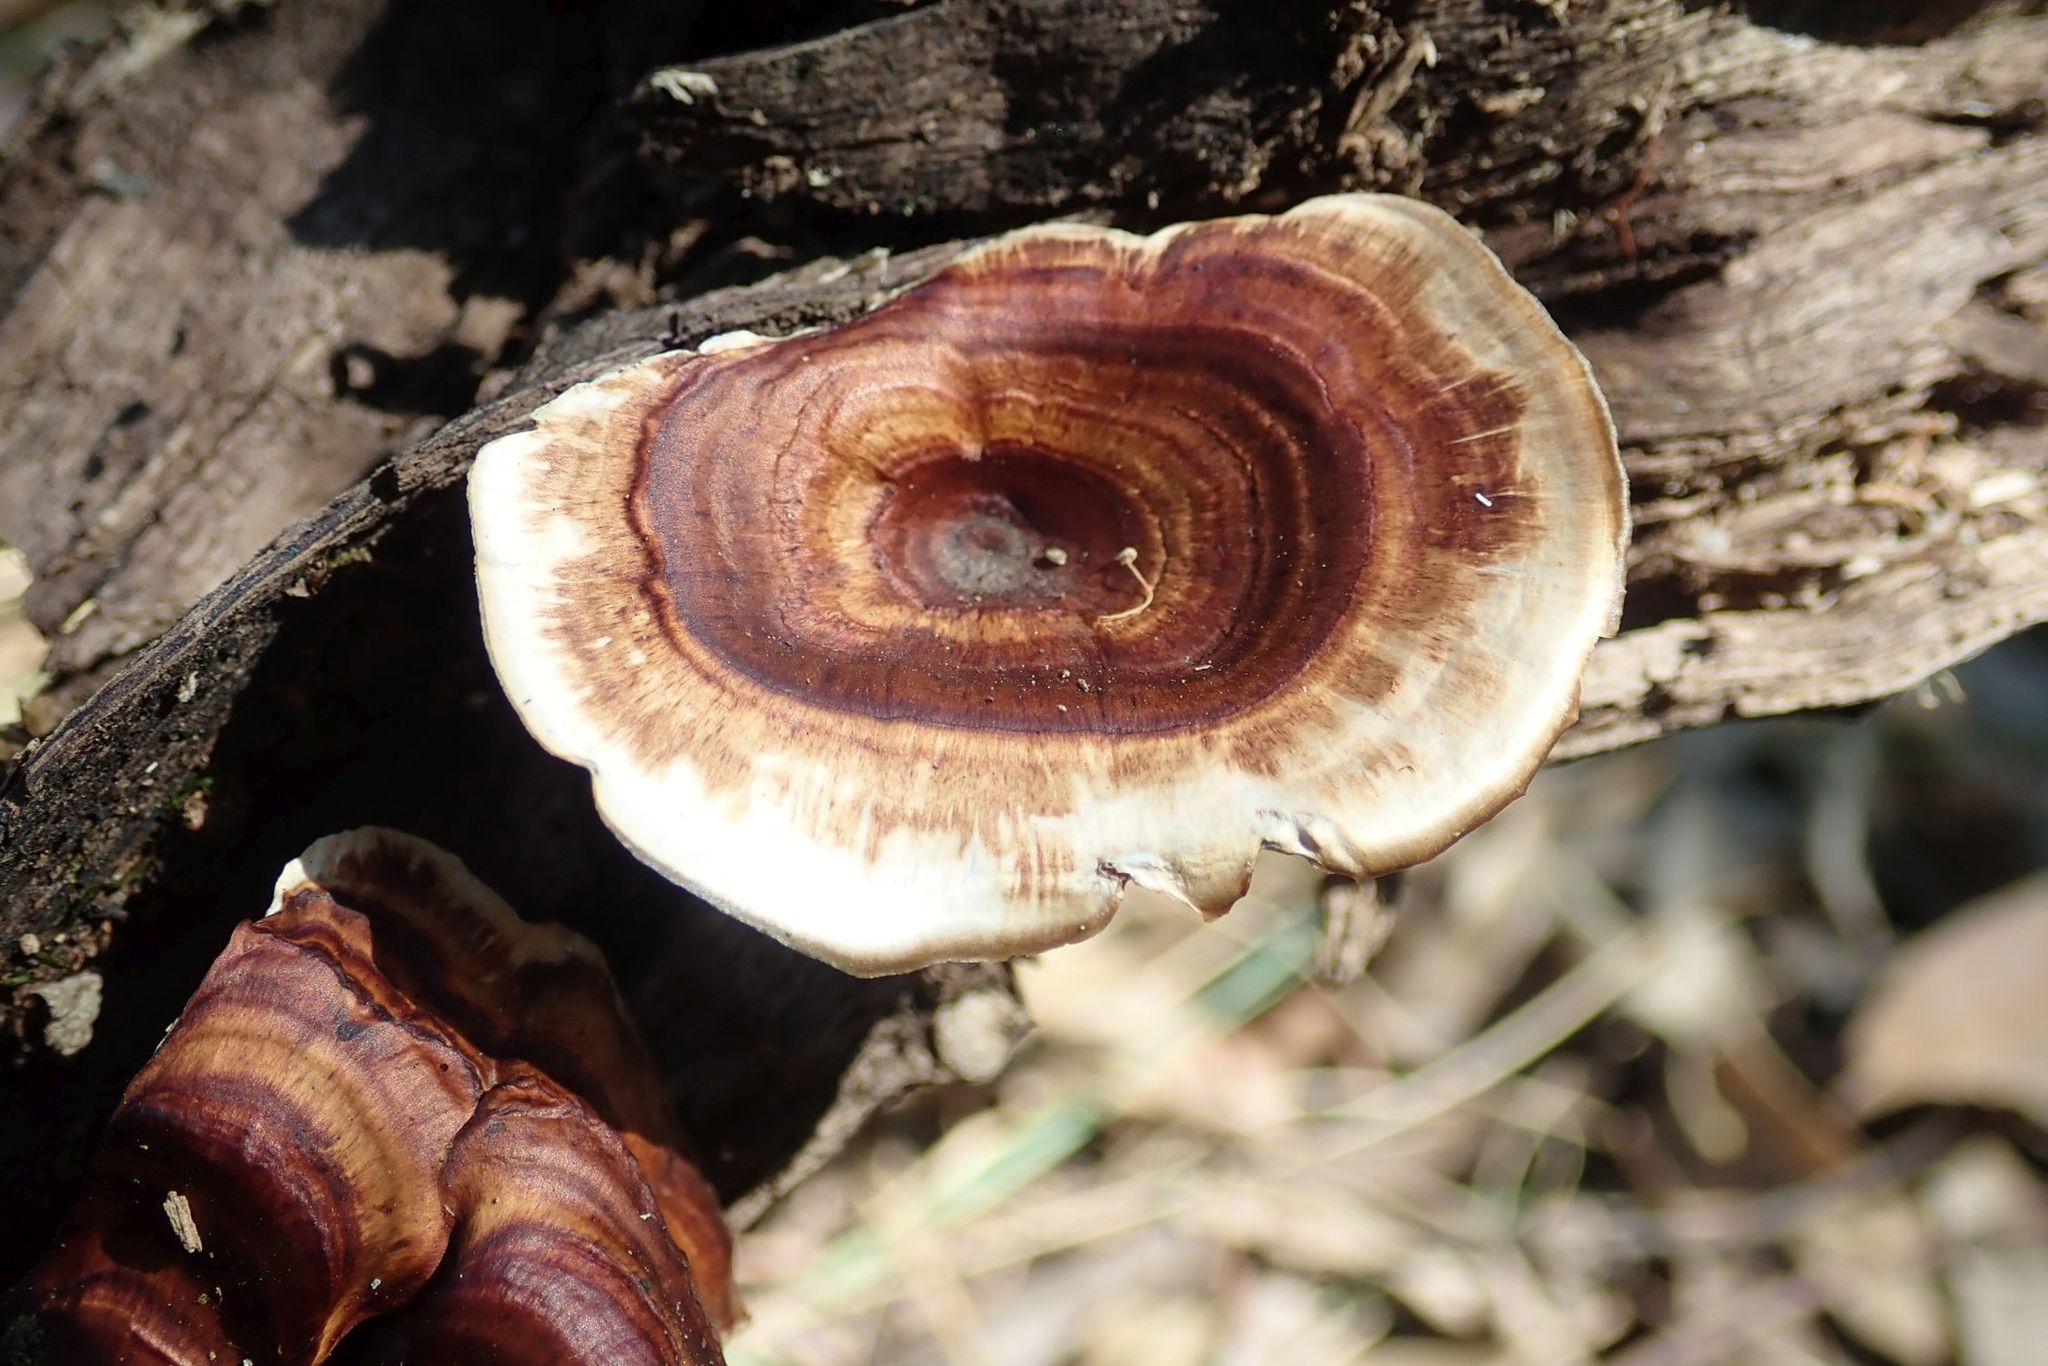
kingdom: Fungi
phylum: Basidiomycota
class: Agaricomycetes
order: Polyporales
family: Polyporaceae
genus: Microporus
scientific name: Microporus xanthopus
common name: Yellow-stemmed micropore
